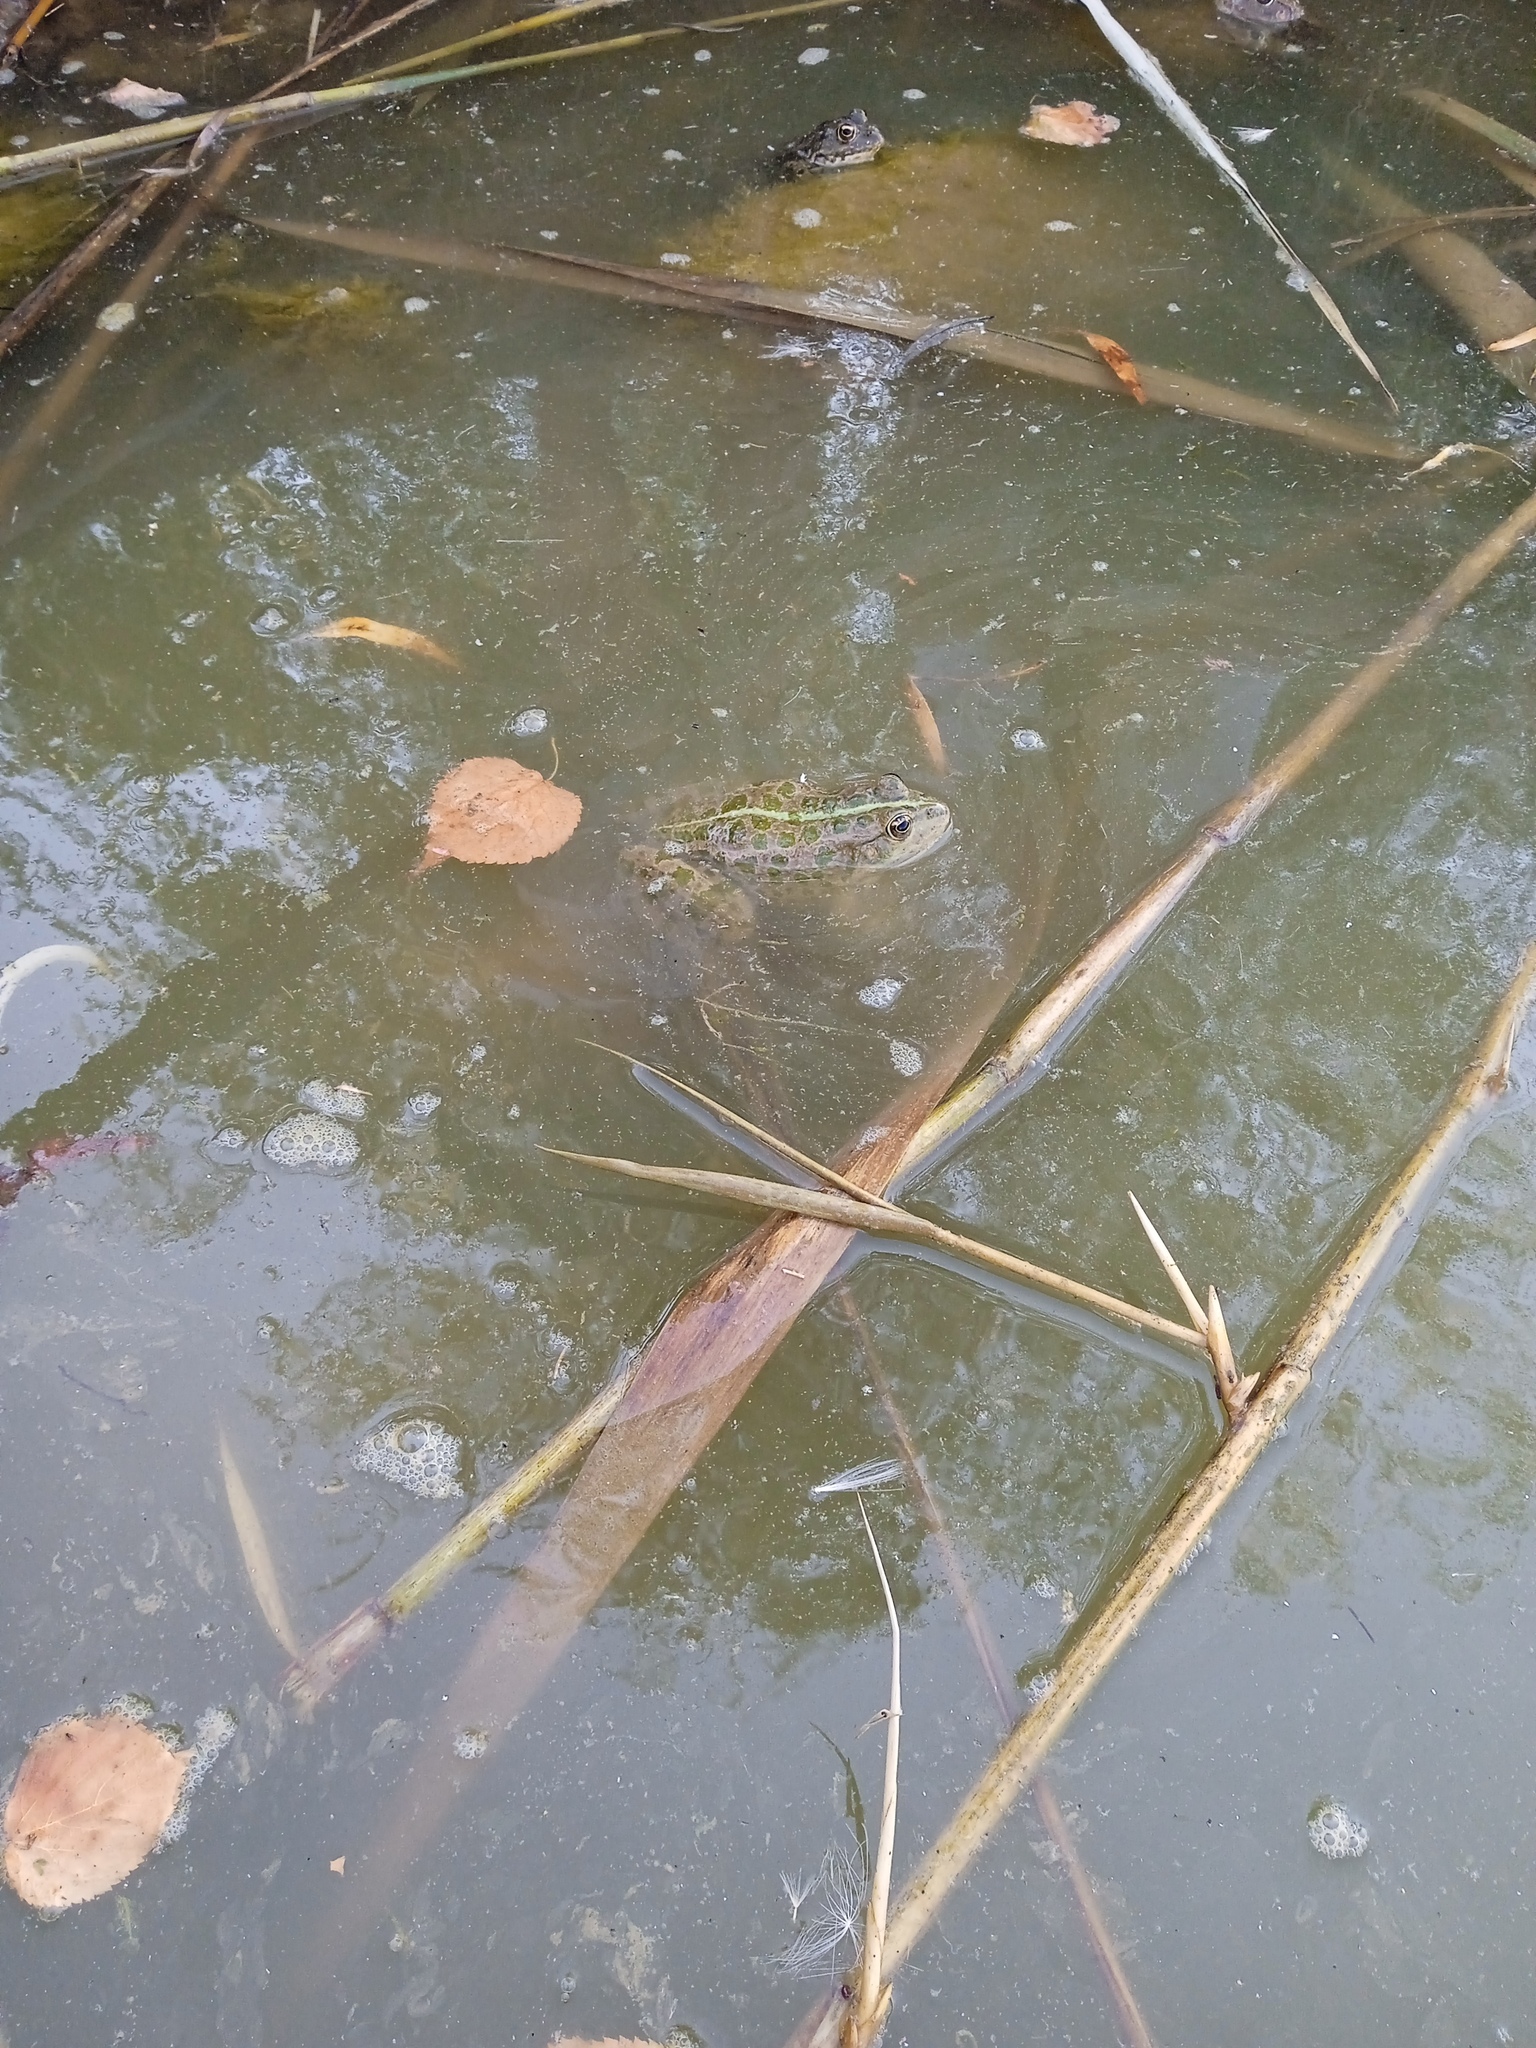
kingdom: Animalia
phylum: Chordata
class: Amphibia
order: Anura
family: Ranidae
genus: Pelophylax
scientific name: Pelophylax ridibundus
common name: Marsh frog
